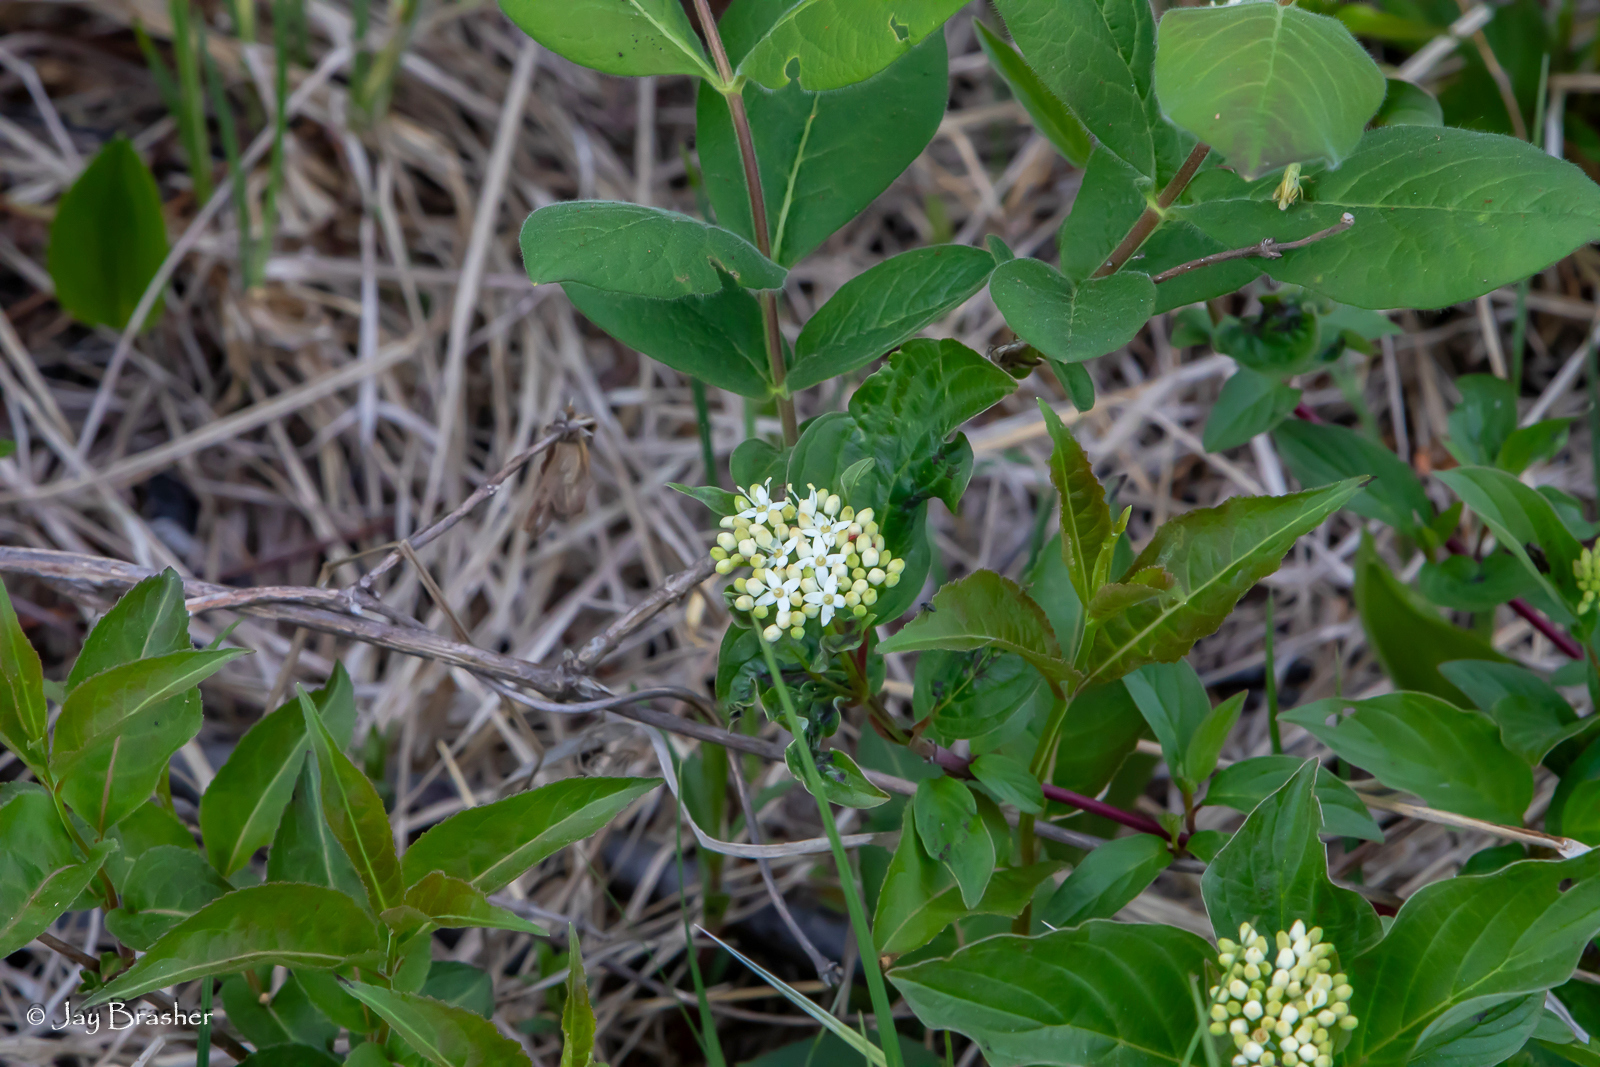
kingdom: Plantae
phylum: Tracheophyta
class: Magnoliopsida
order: Cornales
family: Cornaceae
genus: Cornus
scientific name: Cornus sericea
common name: Red-osier dogwood
